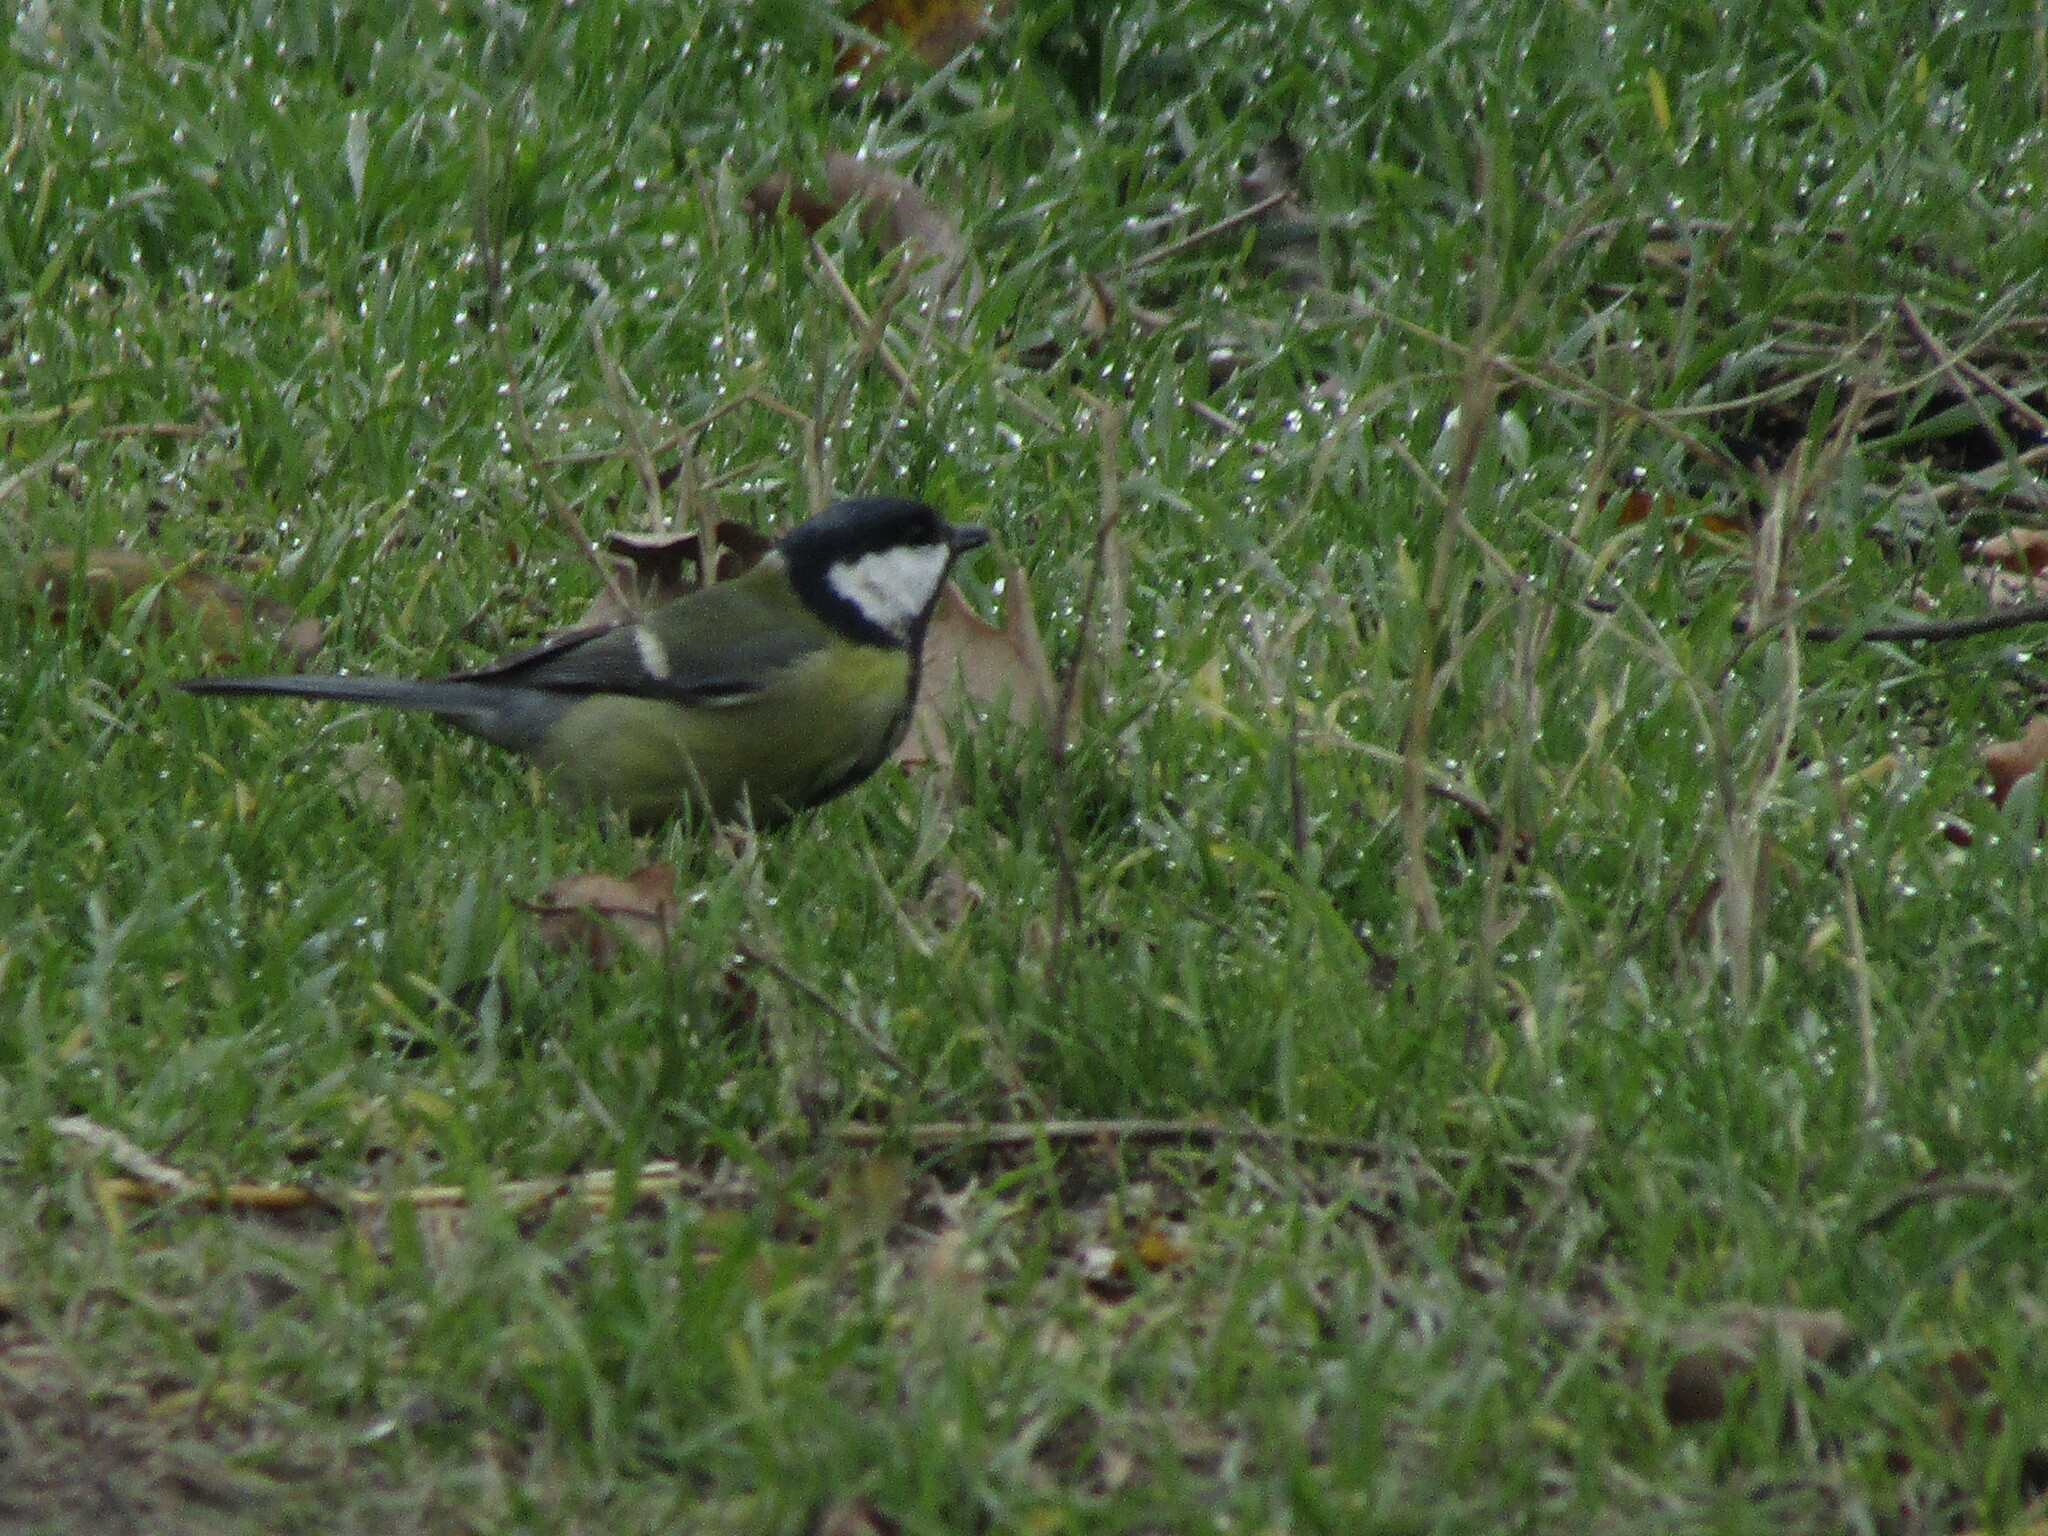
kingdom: Animalia
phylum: Chordata
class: Aves
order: Passeriformes
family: Paridae
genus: Parus
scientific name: Parus major
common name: Great tit
